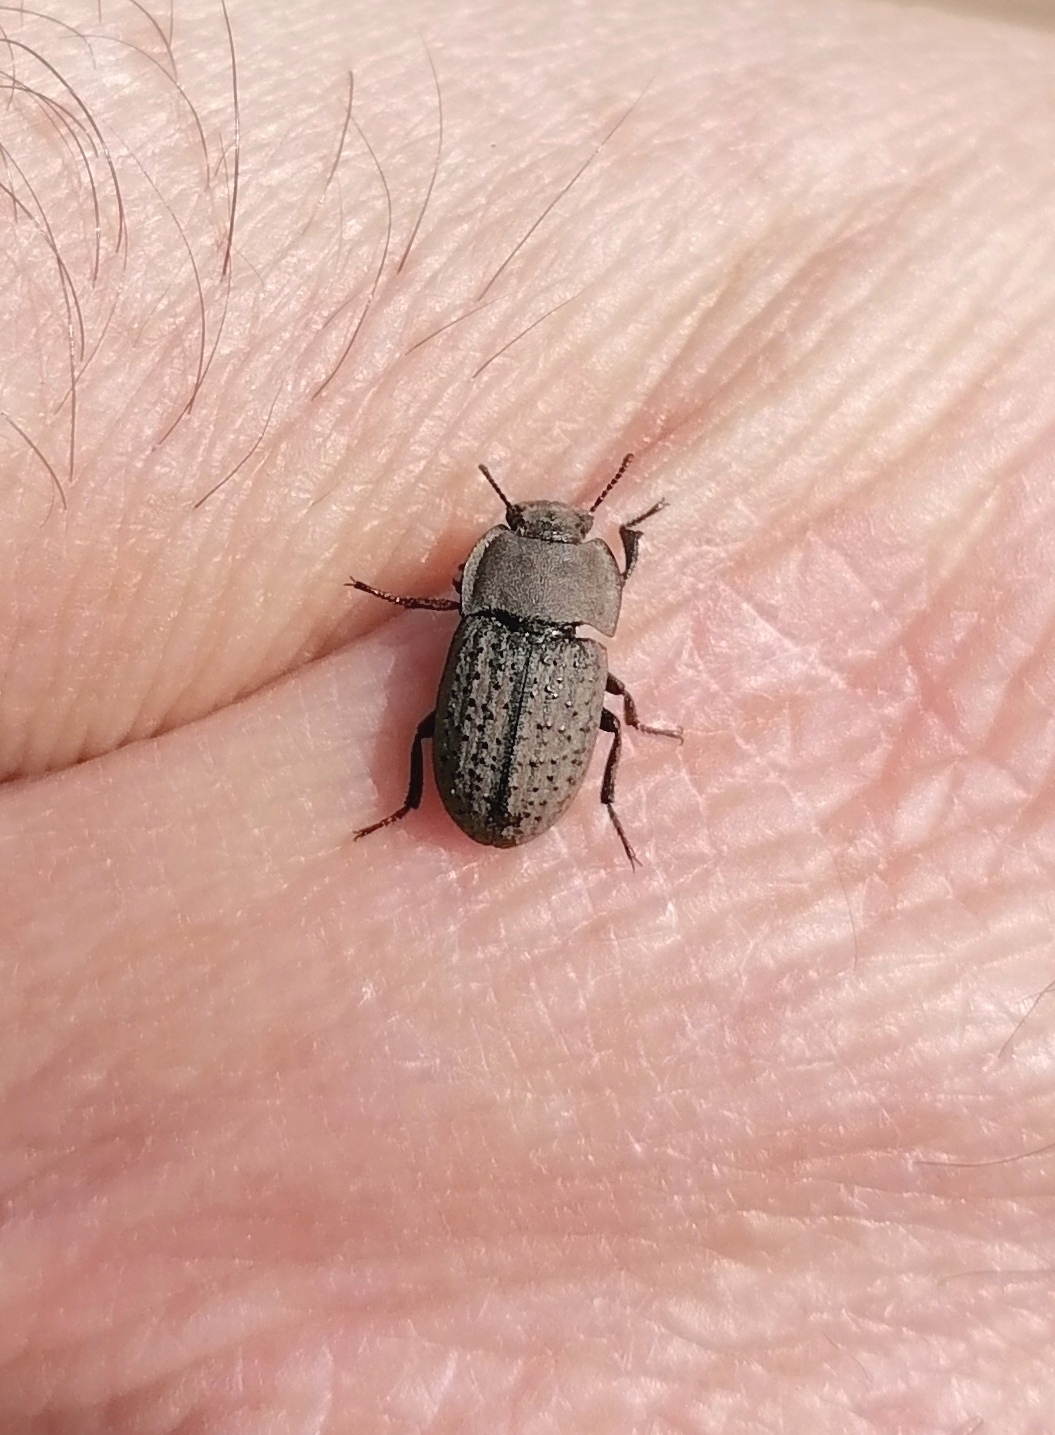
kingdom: Animalia
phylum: Arthropoda
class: Insecta
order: Coleoptera
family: Tenebrionidae
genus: Opatrum
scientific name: Opatrum sabulosum
